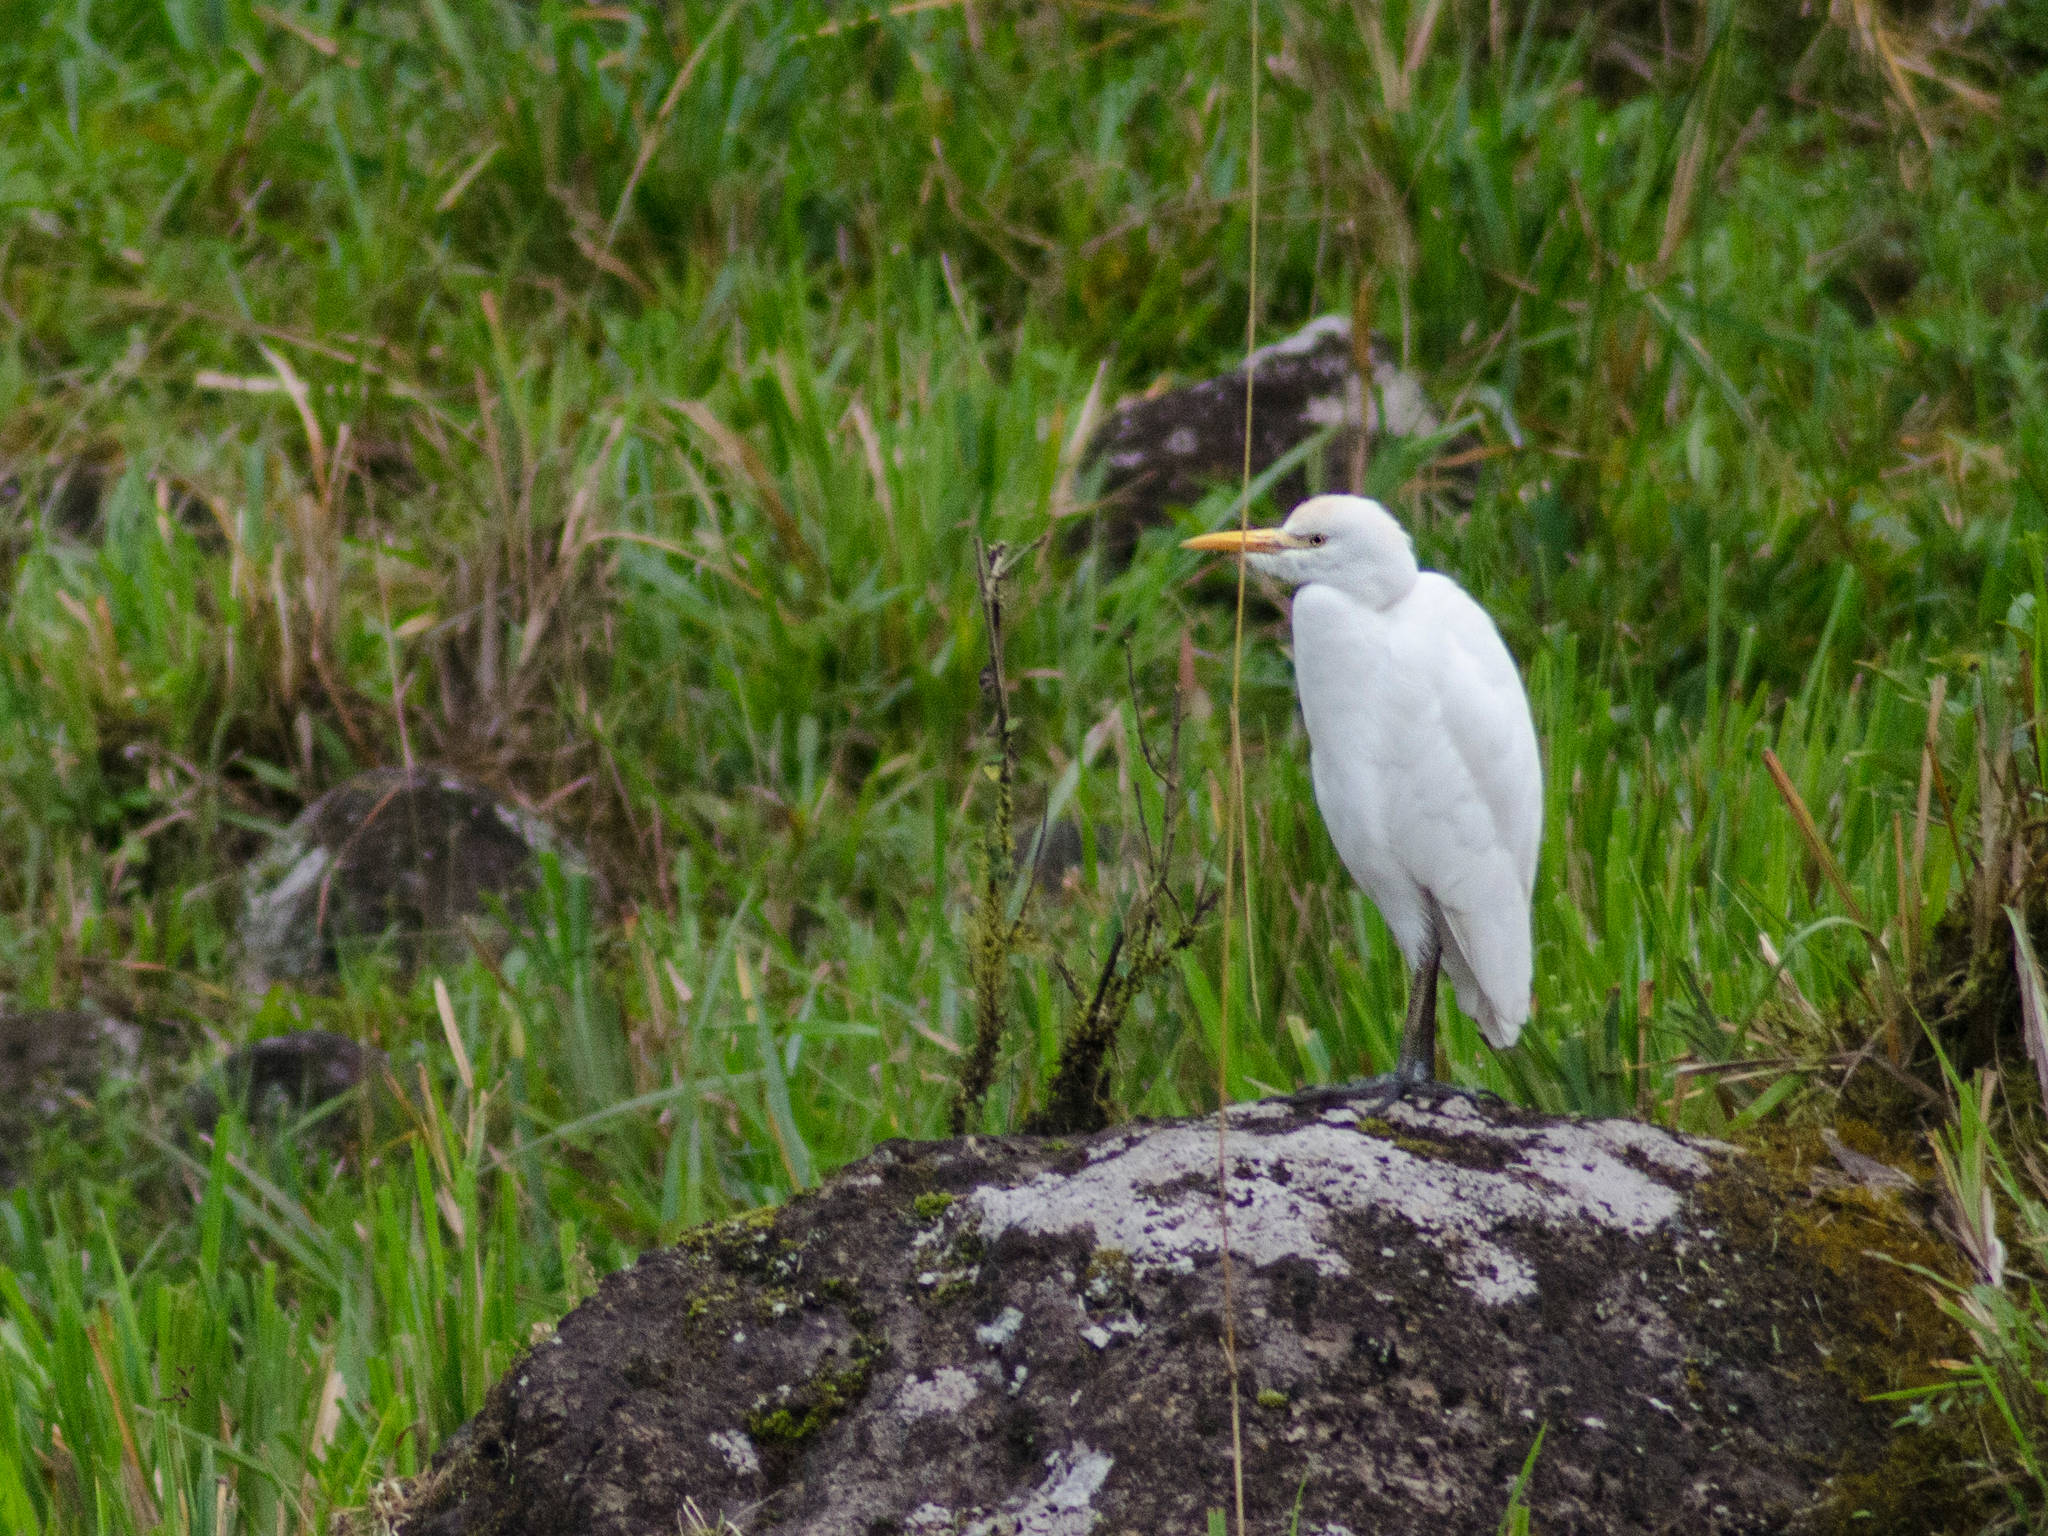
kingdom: Animalia
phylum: Chordata
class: Aves
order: Pelecaniformes
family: Ardeidae
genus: Bubulcus
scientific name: Bubulcus ibis
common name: Cattle egret
